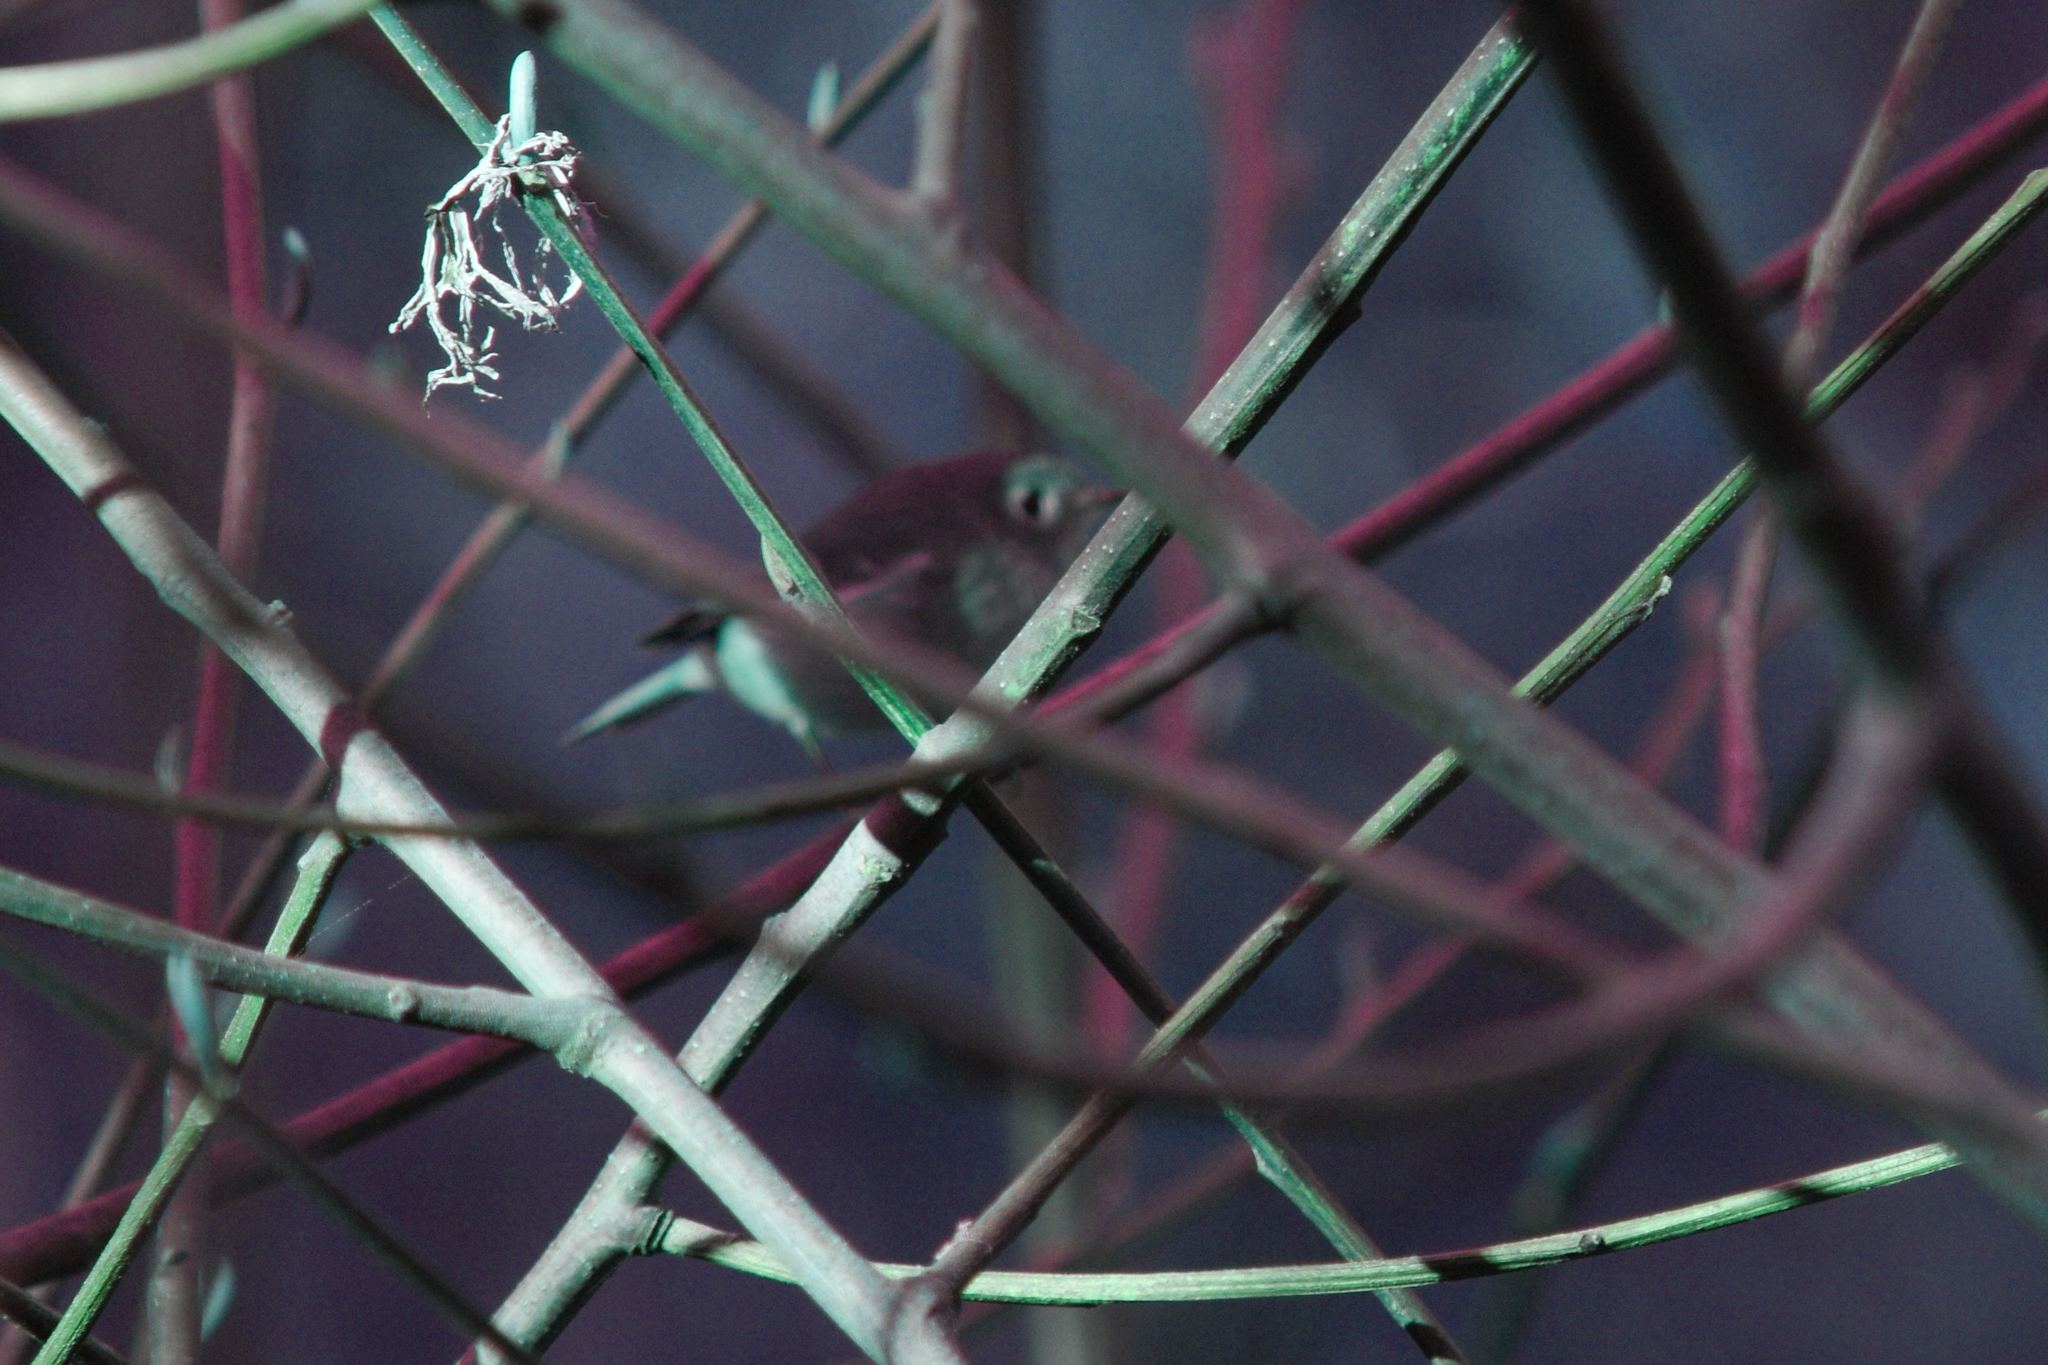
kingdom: Animalia
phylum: Chordata
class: Aves
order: Passeriformes
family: Regulidae
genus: Regulus
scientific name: Regulus calendula
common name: Ruby-crowned kinglet
